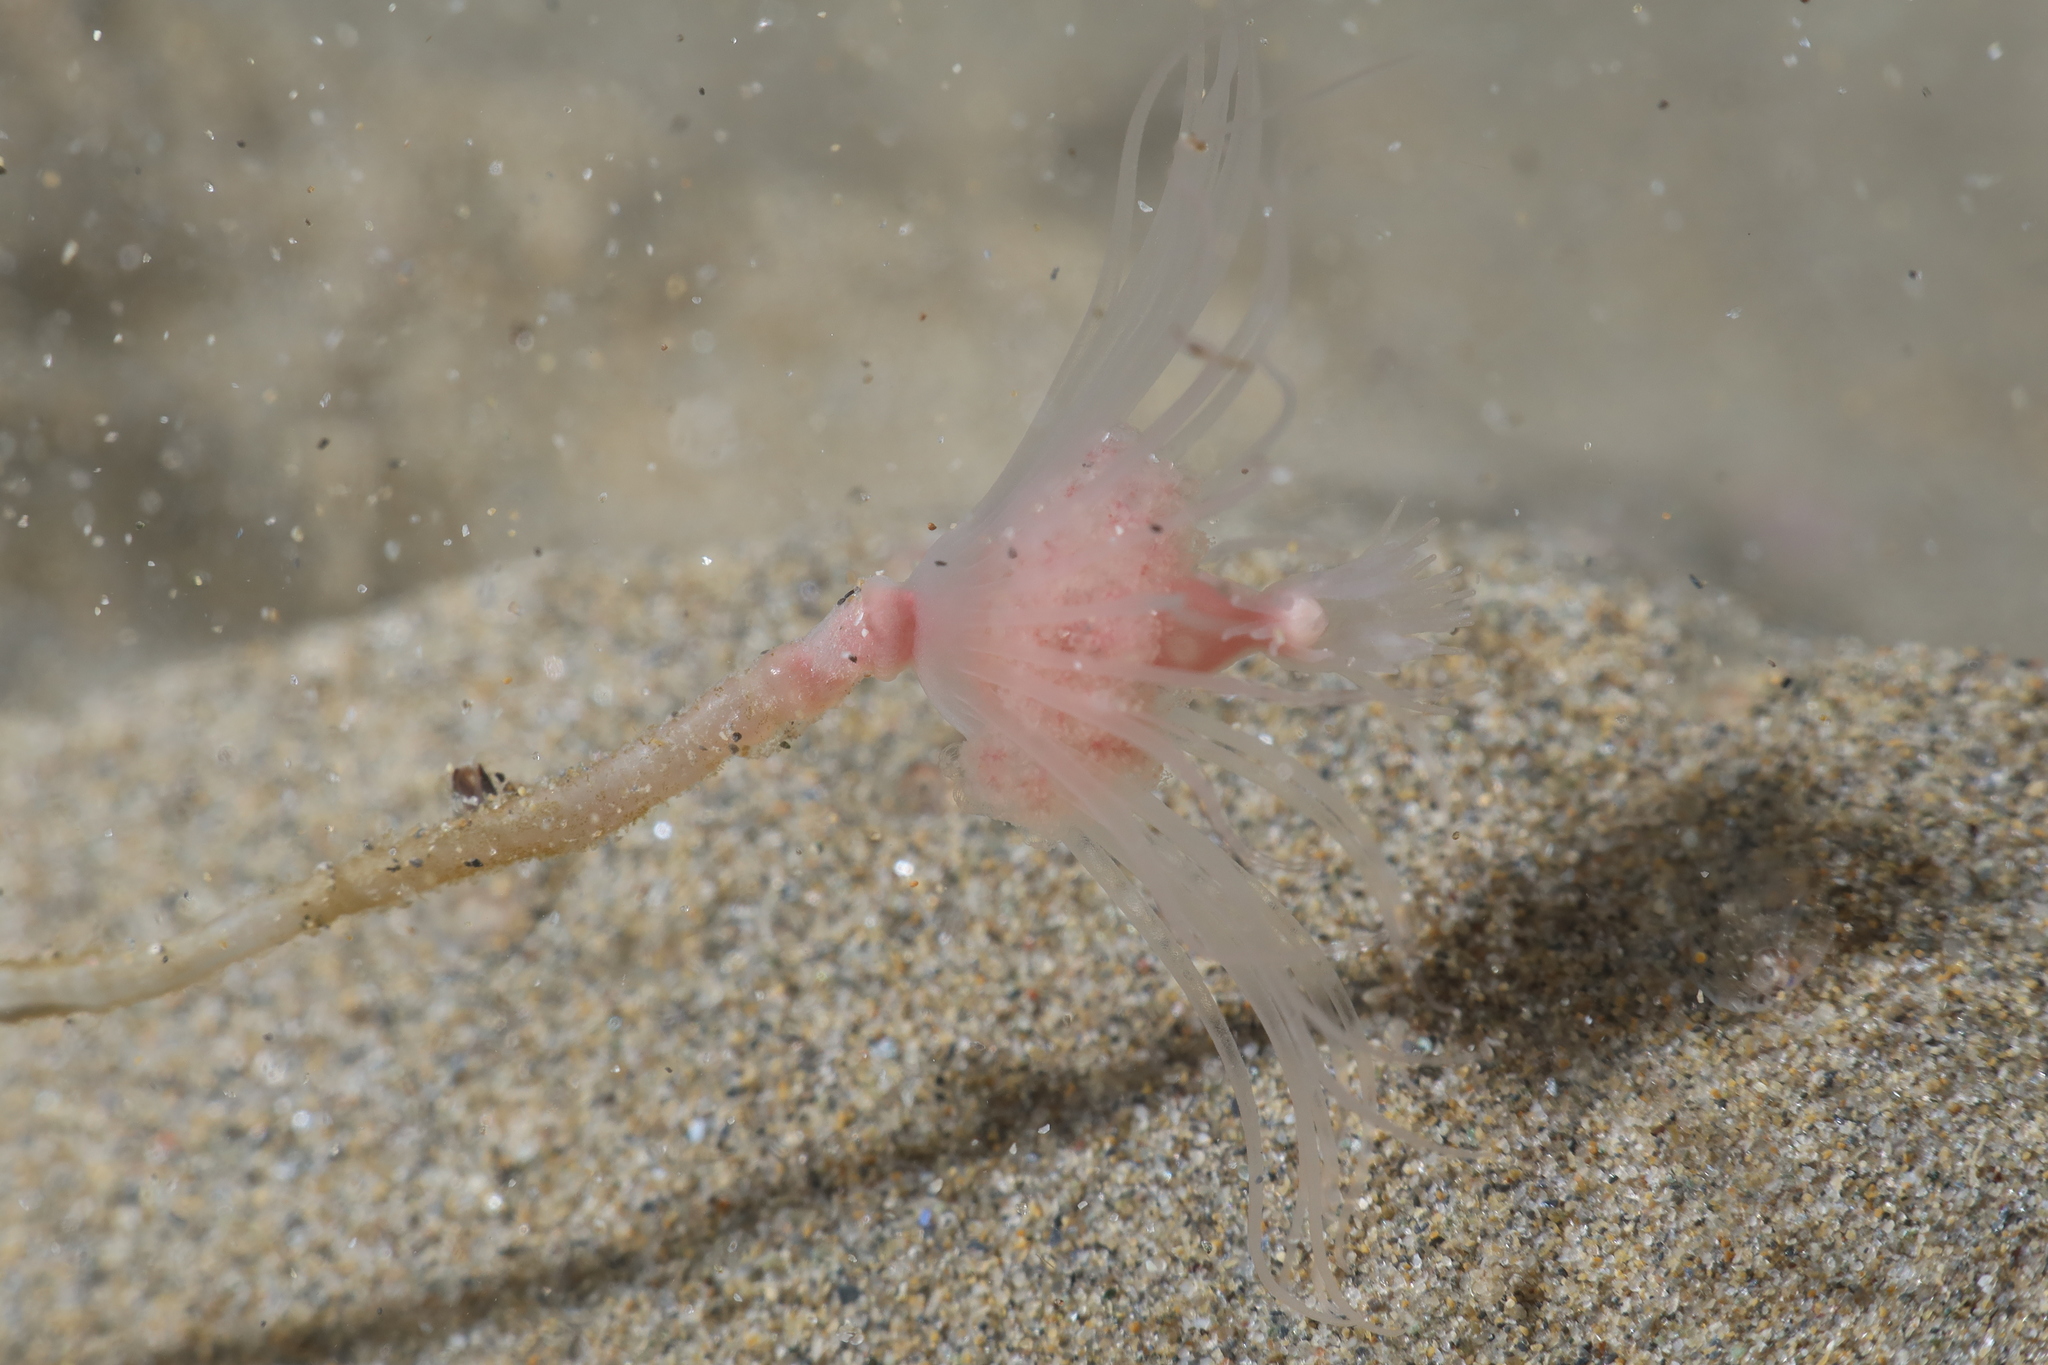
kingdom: Animalia
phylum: Cnidaria
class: Hydrozoa
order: Anthoathecata
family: Tubulariidae
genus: Tubularia
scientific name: Tubularia indivisa
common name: Oaten pipes hydroid
